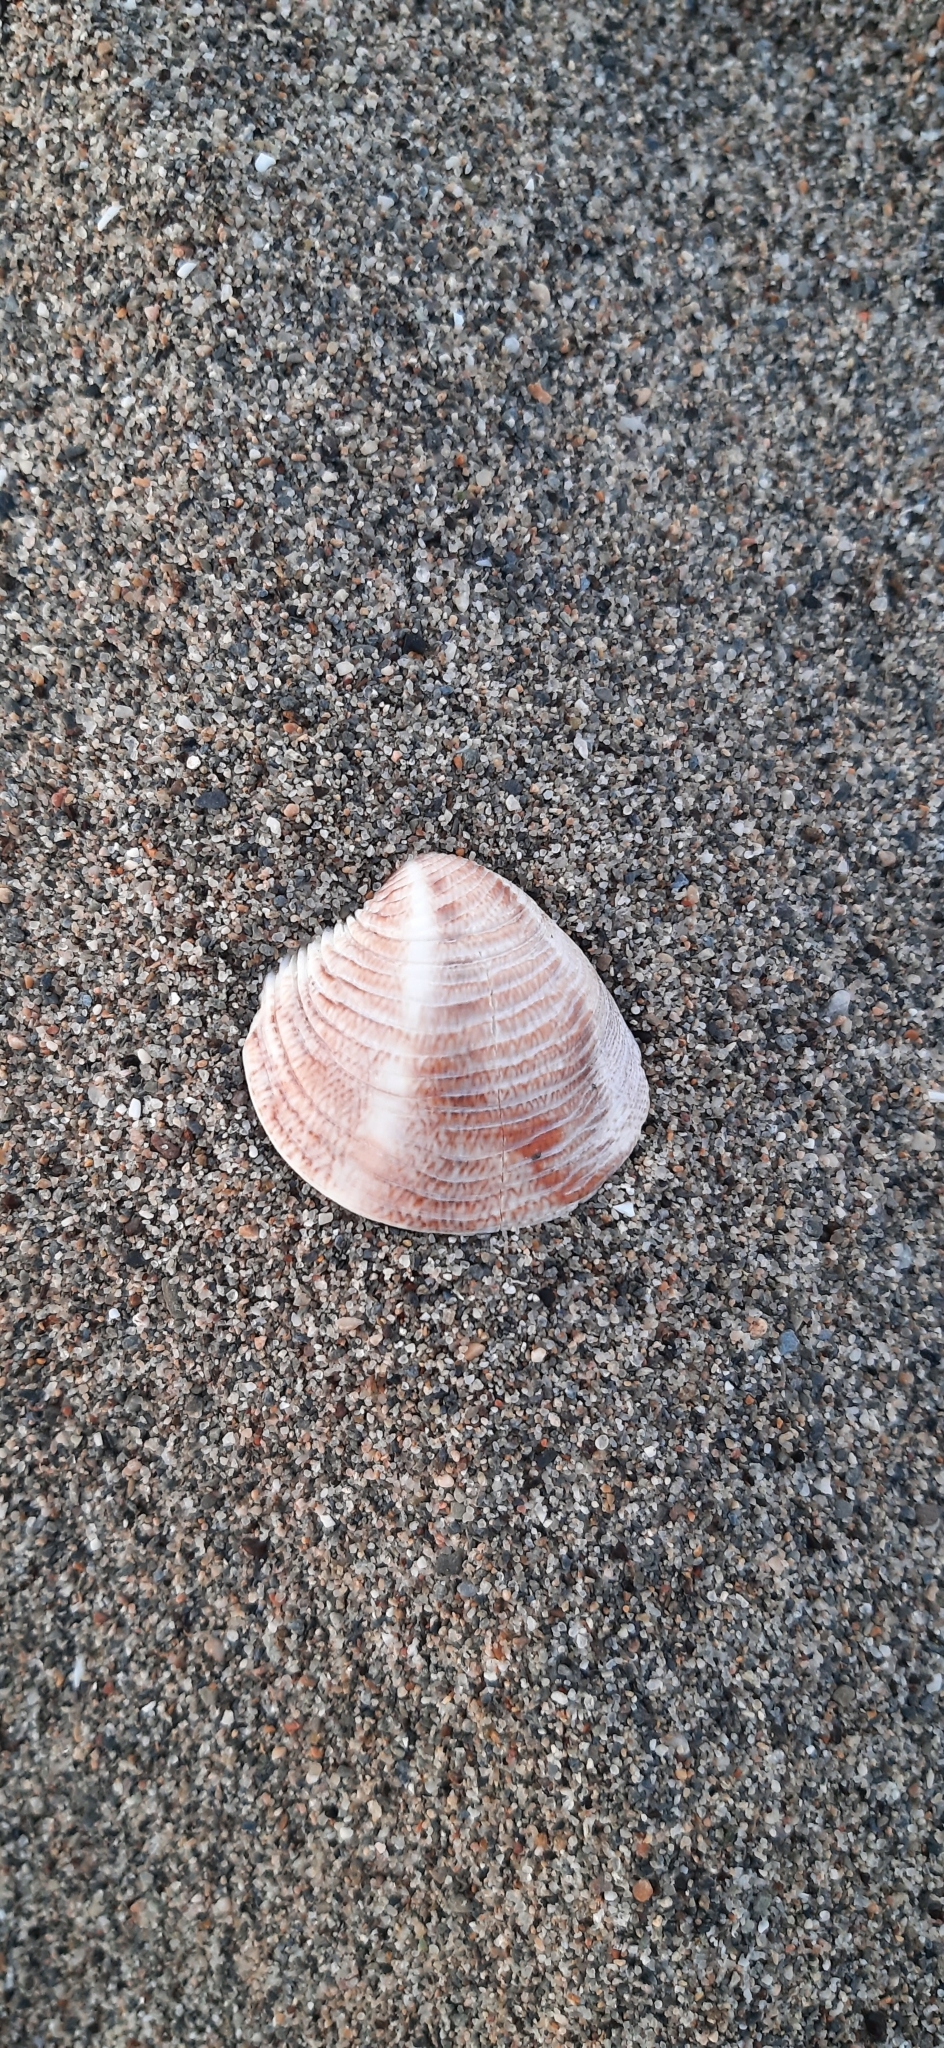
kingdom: Animalia
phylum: Mollusca
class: Bivalvia
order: Venerida
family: Veneridae
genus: Chamelea
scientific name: Chamelea gallina
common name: Chicken venus
